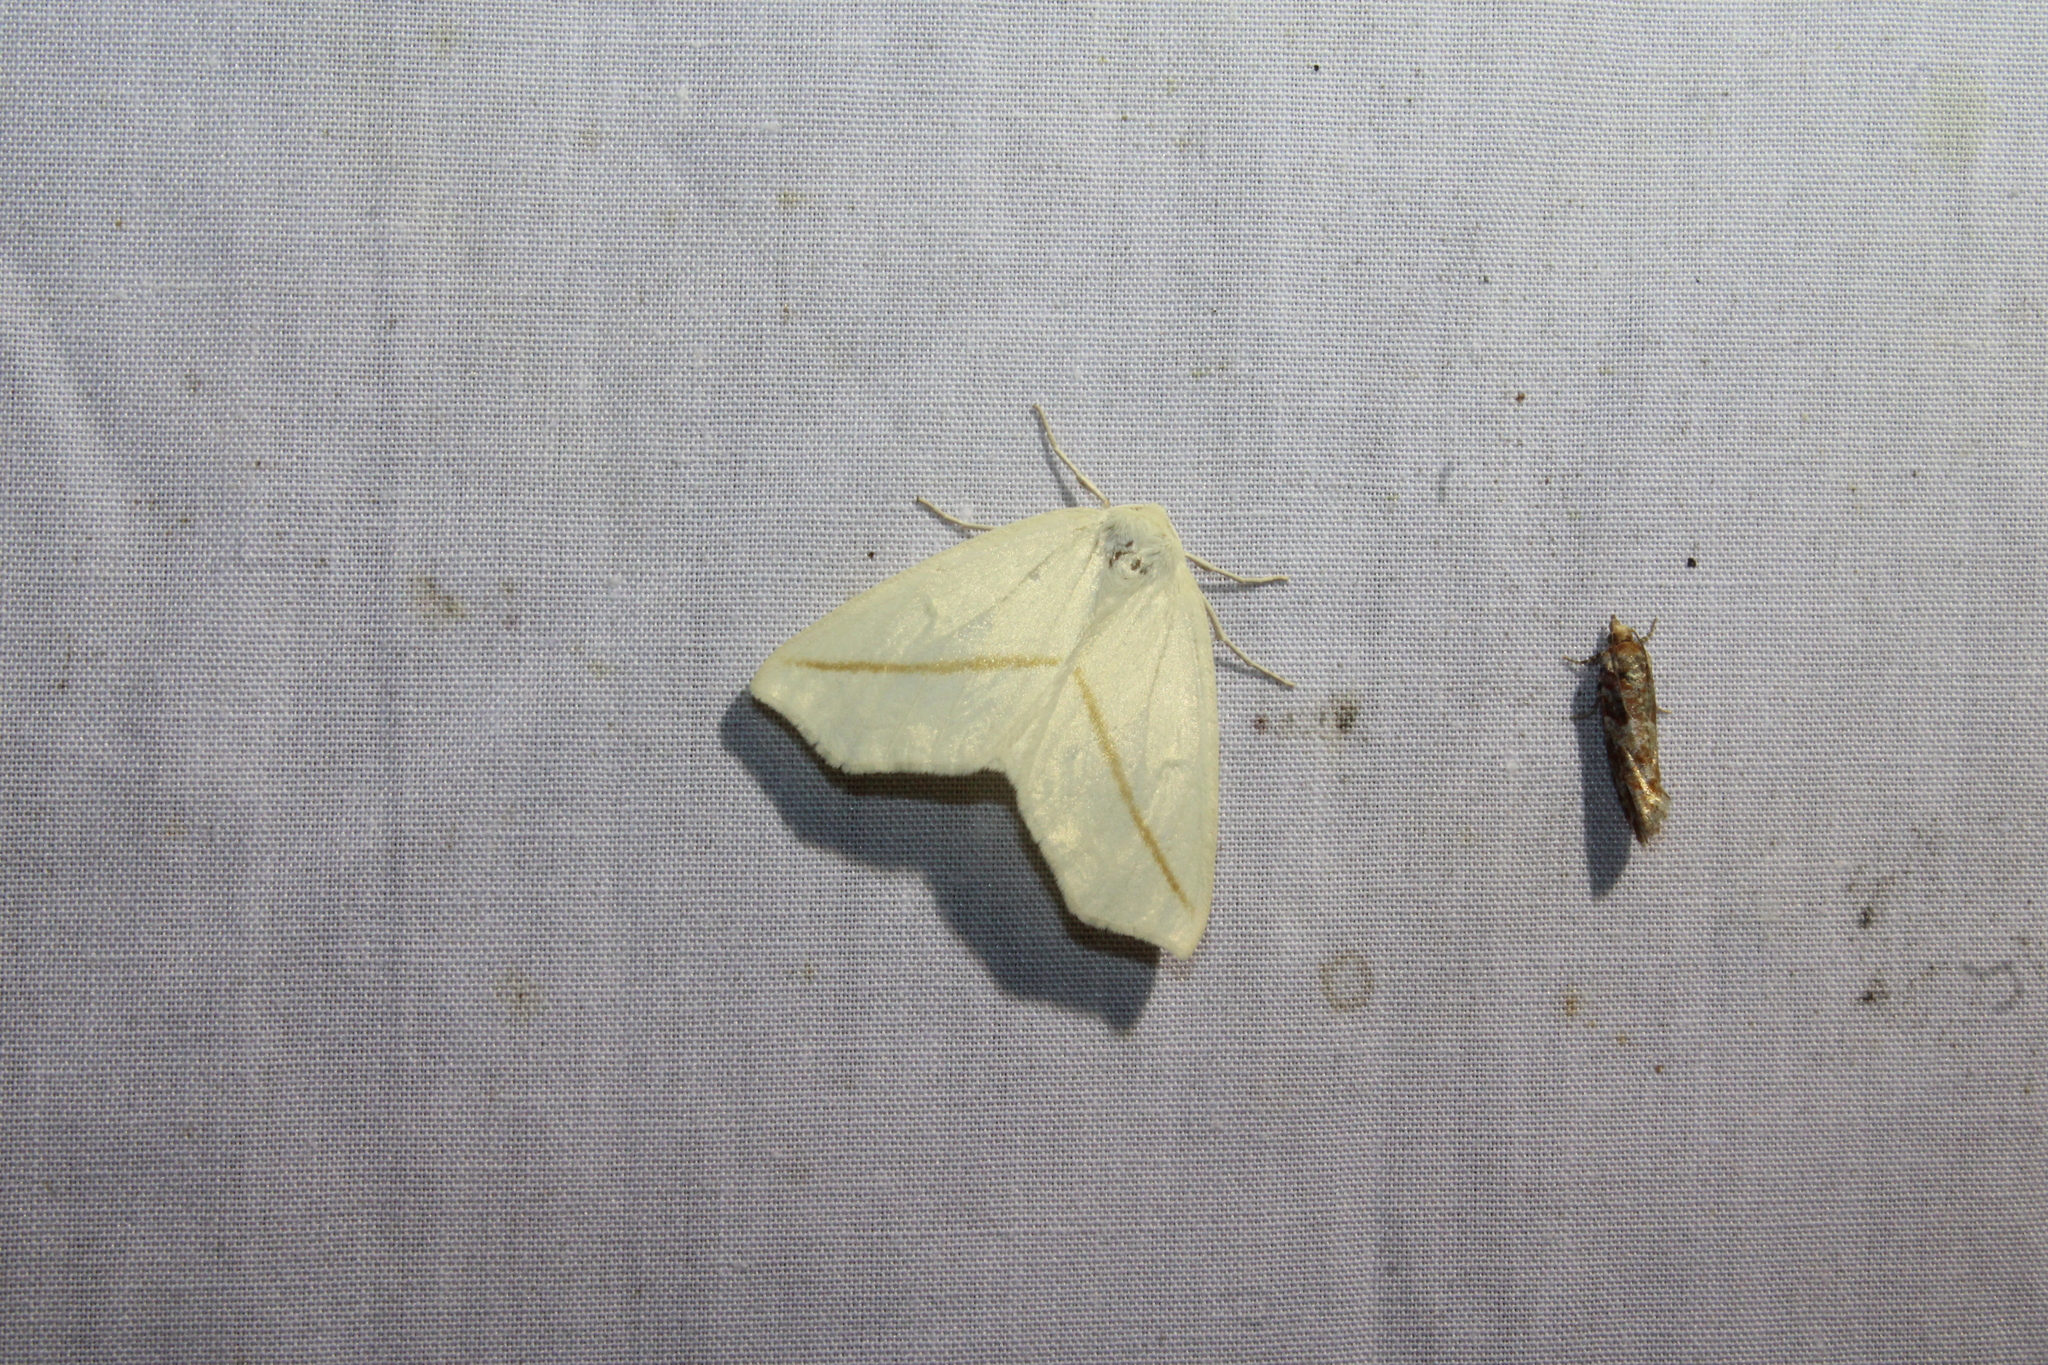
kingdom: Animalia
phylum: Arthropoda
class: Insecta
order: Lepidoptera
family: Geometridae
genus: Tetracis
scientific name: Tetracis cachexiata
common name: White slant-line
